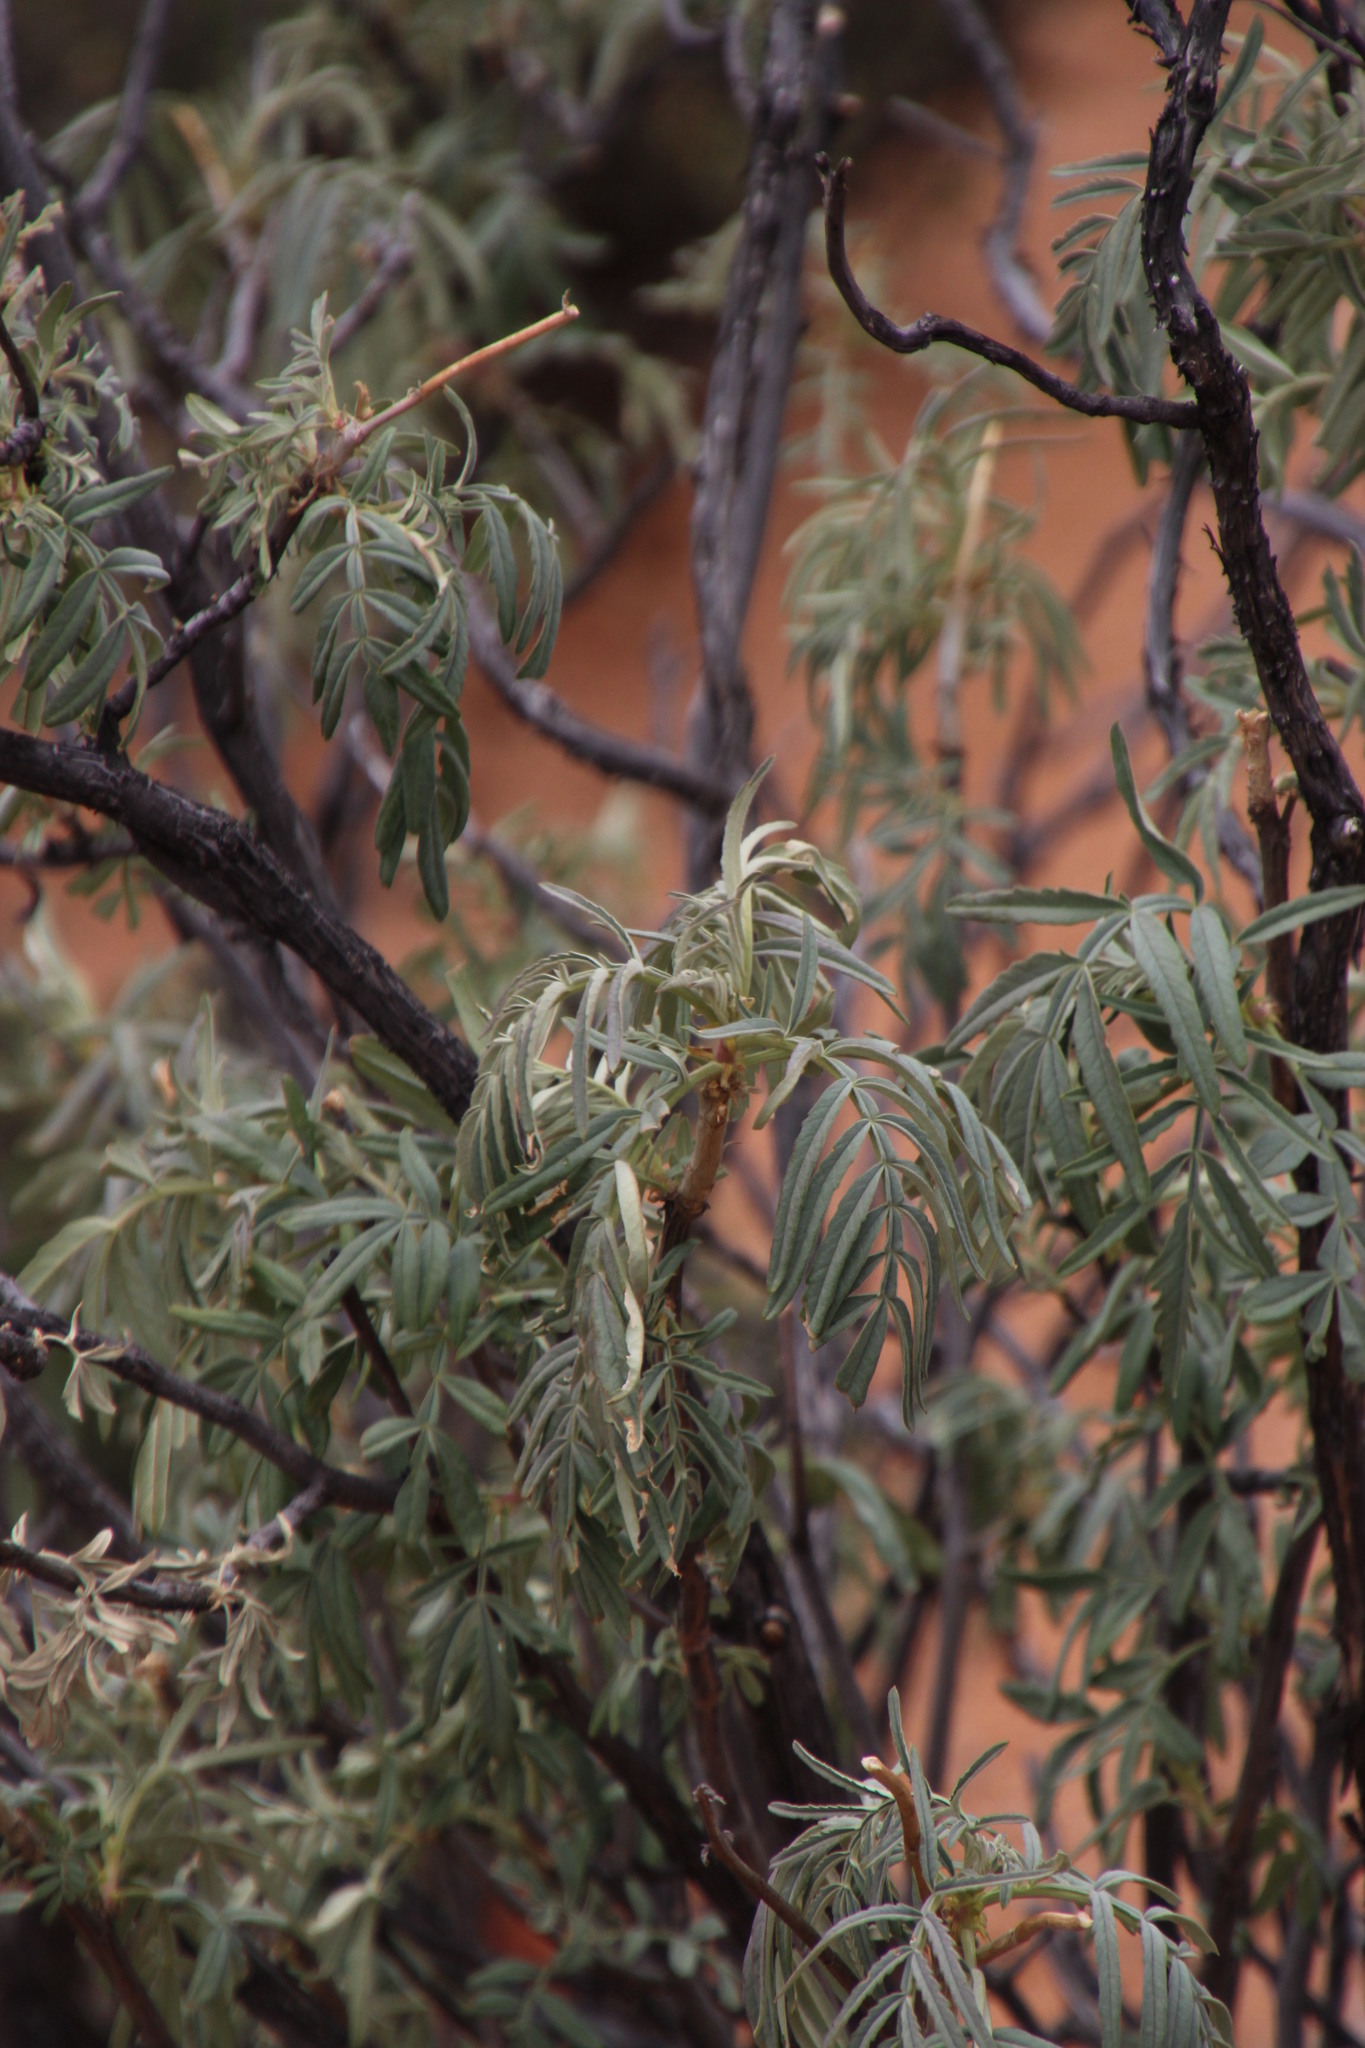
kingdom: Plantae
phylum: Tracheophyta
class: Magnoliopsida
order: Geraniales
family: Melianthaceae
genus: Melianthus
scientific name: Melianthus pectinatus
